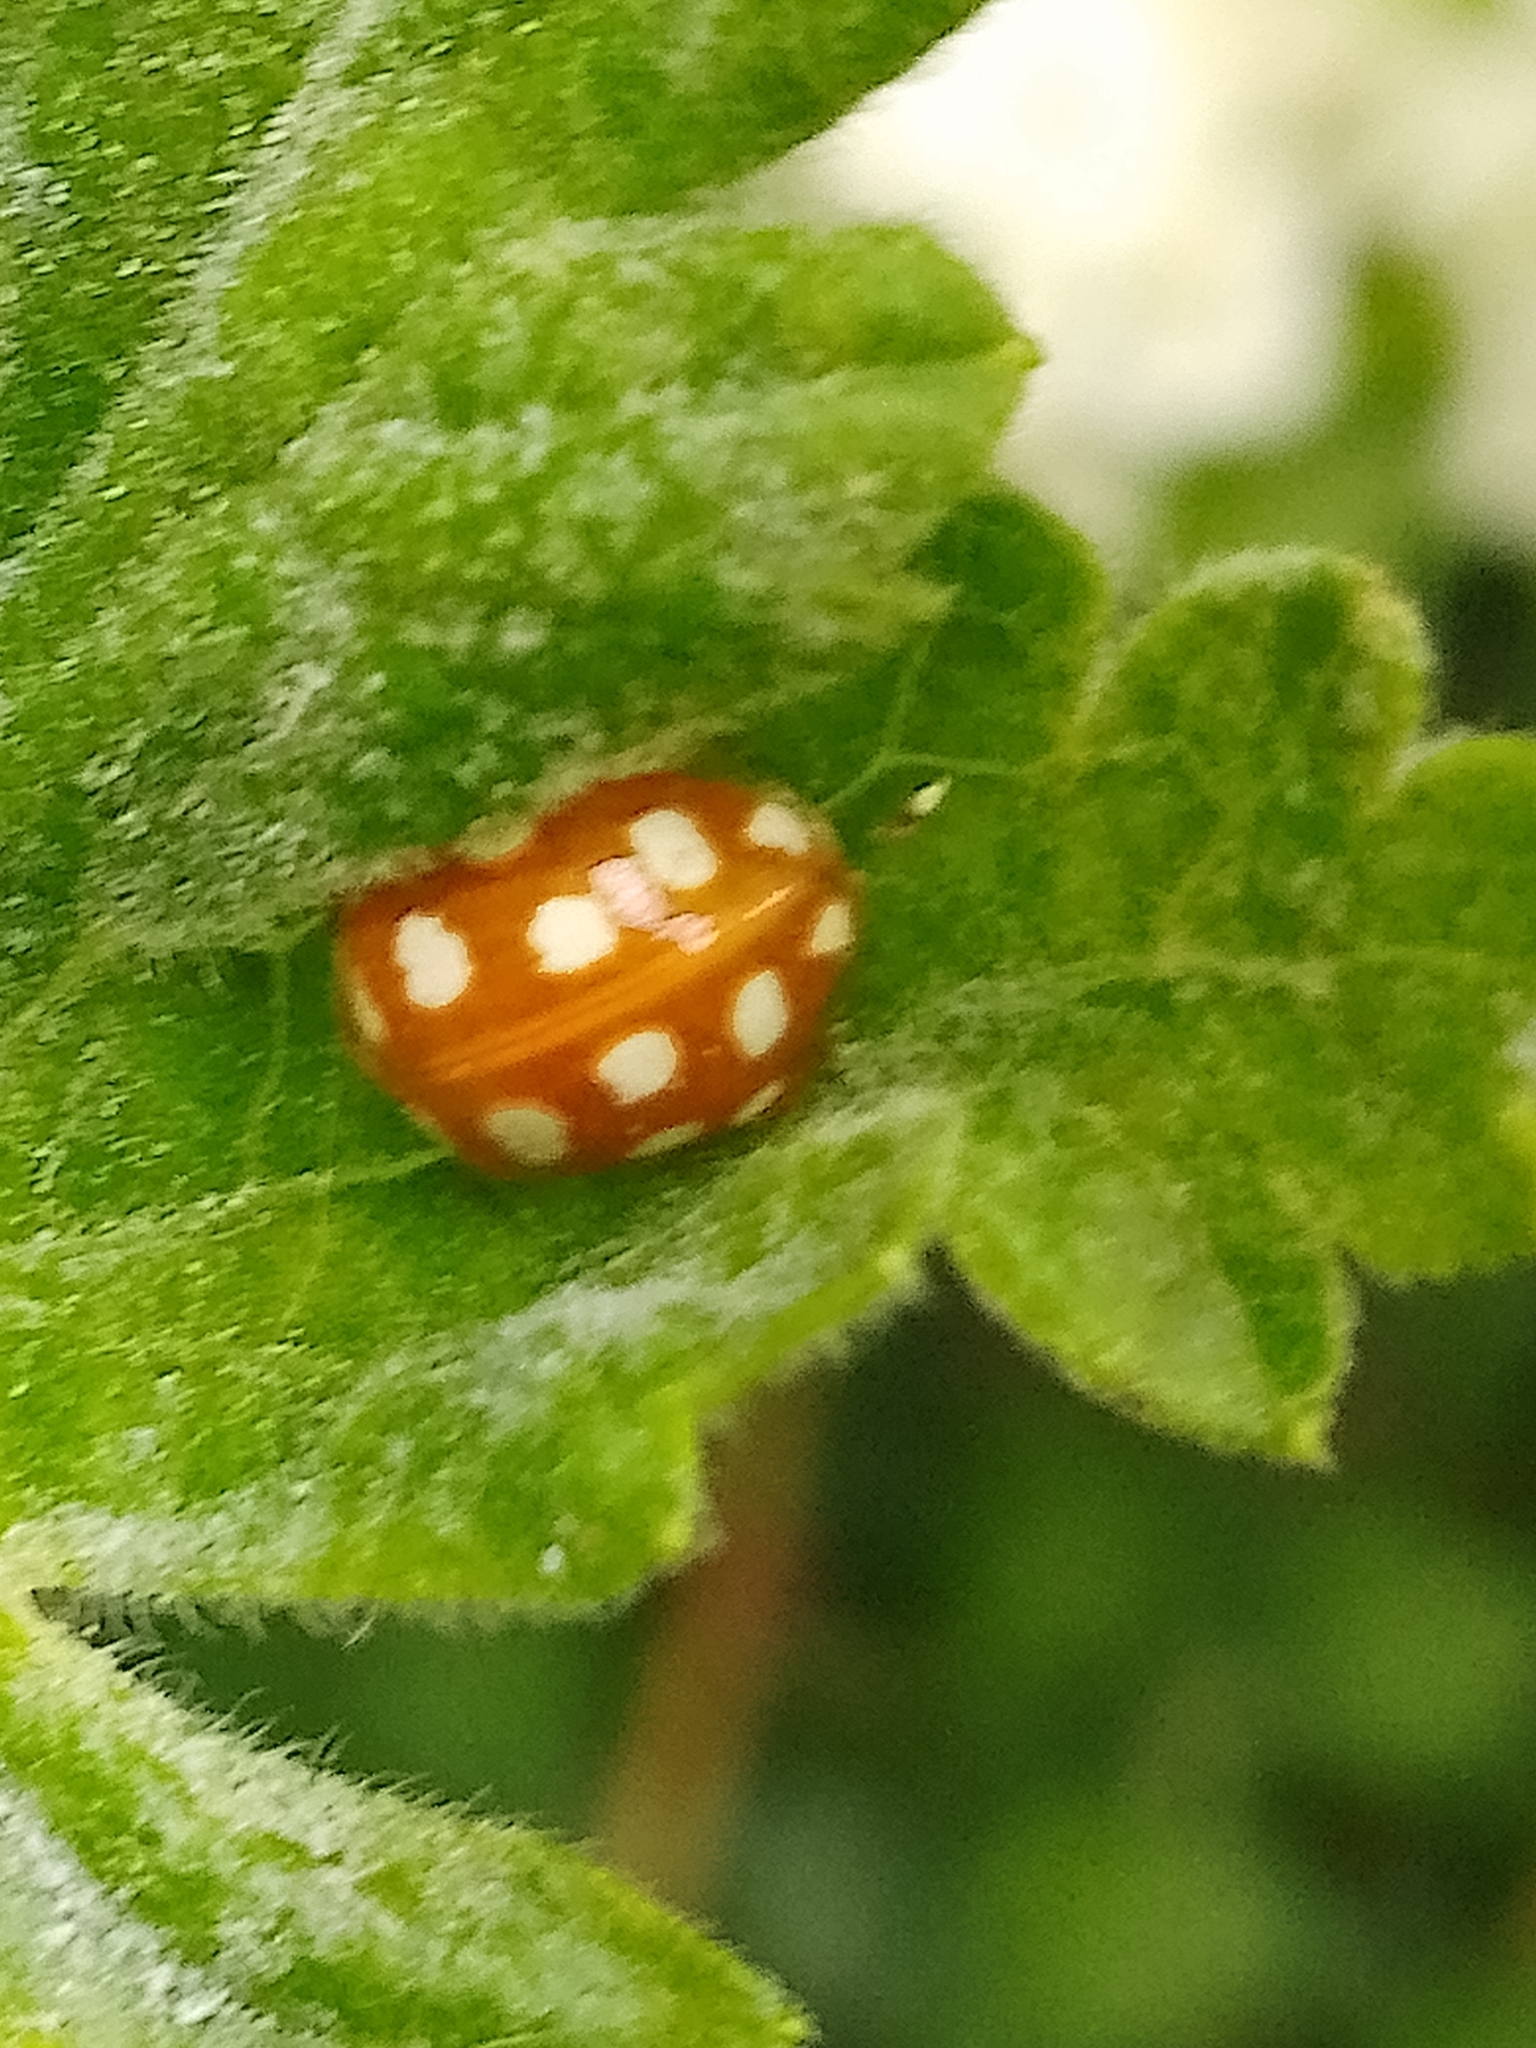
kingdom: Animalia
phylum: Arthropoda
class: Insecta
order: Coleoptera
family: Coccinellidae
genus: Halyzia
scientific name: Halyzia sedecimguttata
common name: Orange ladybird
